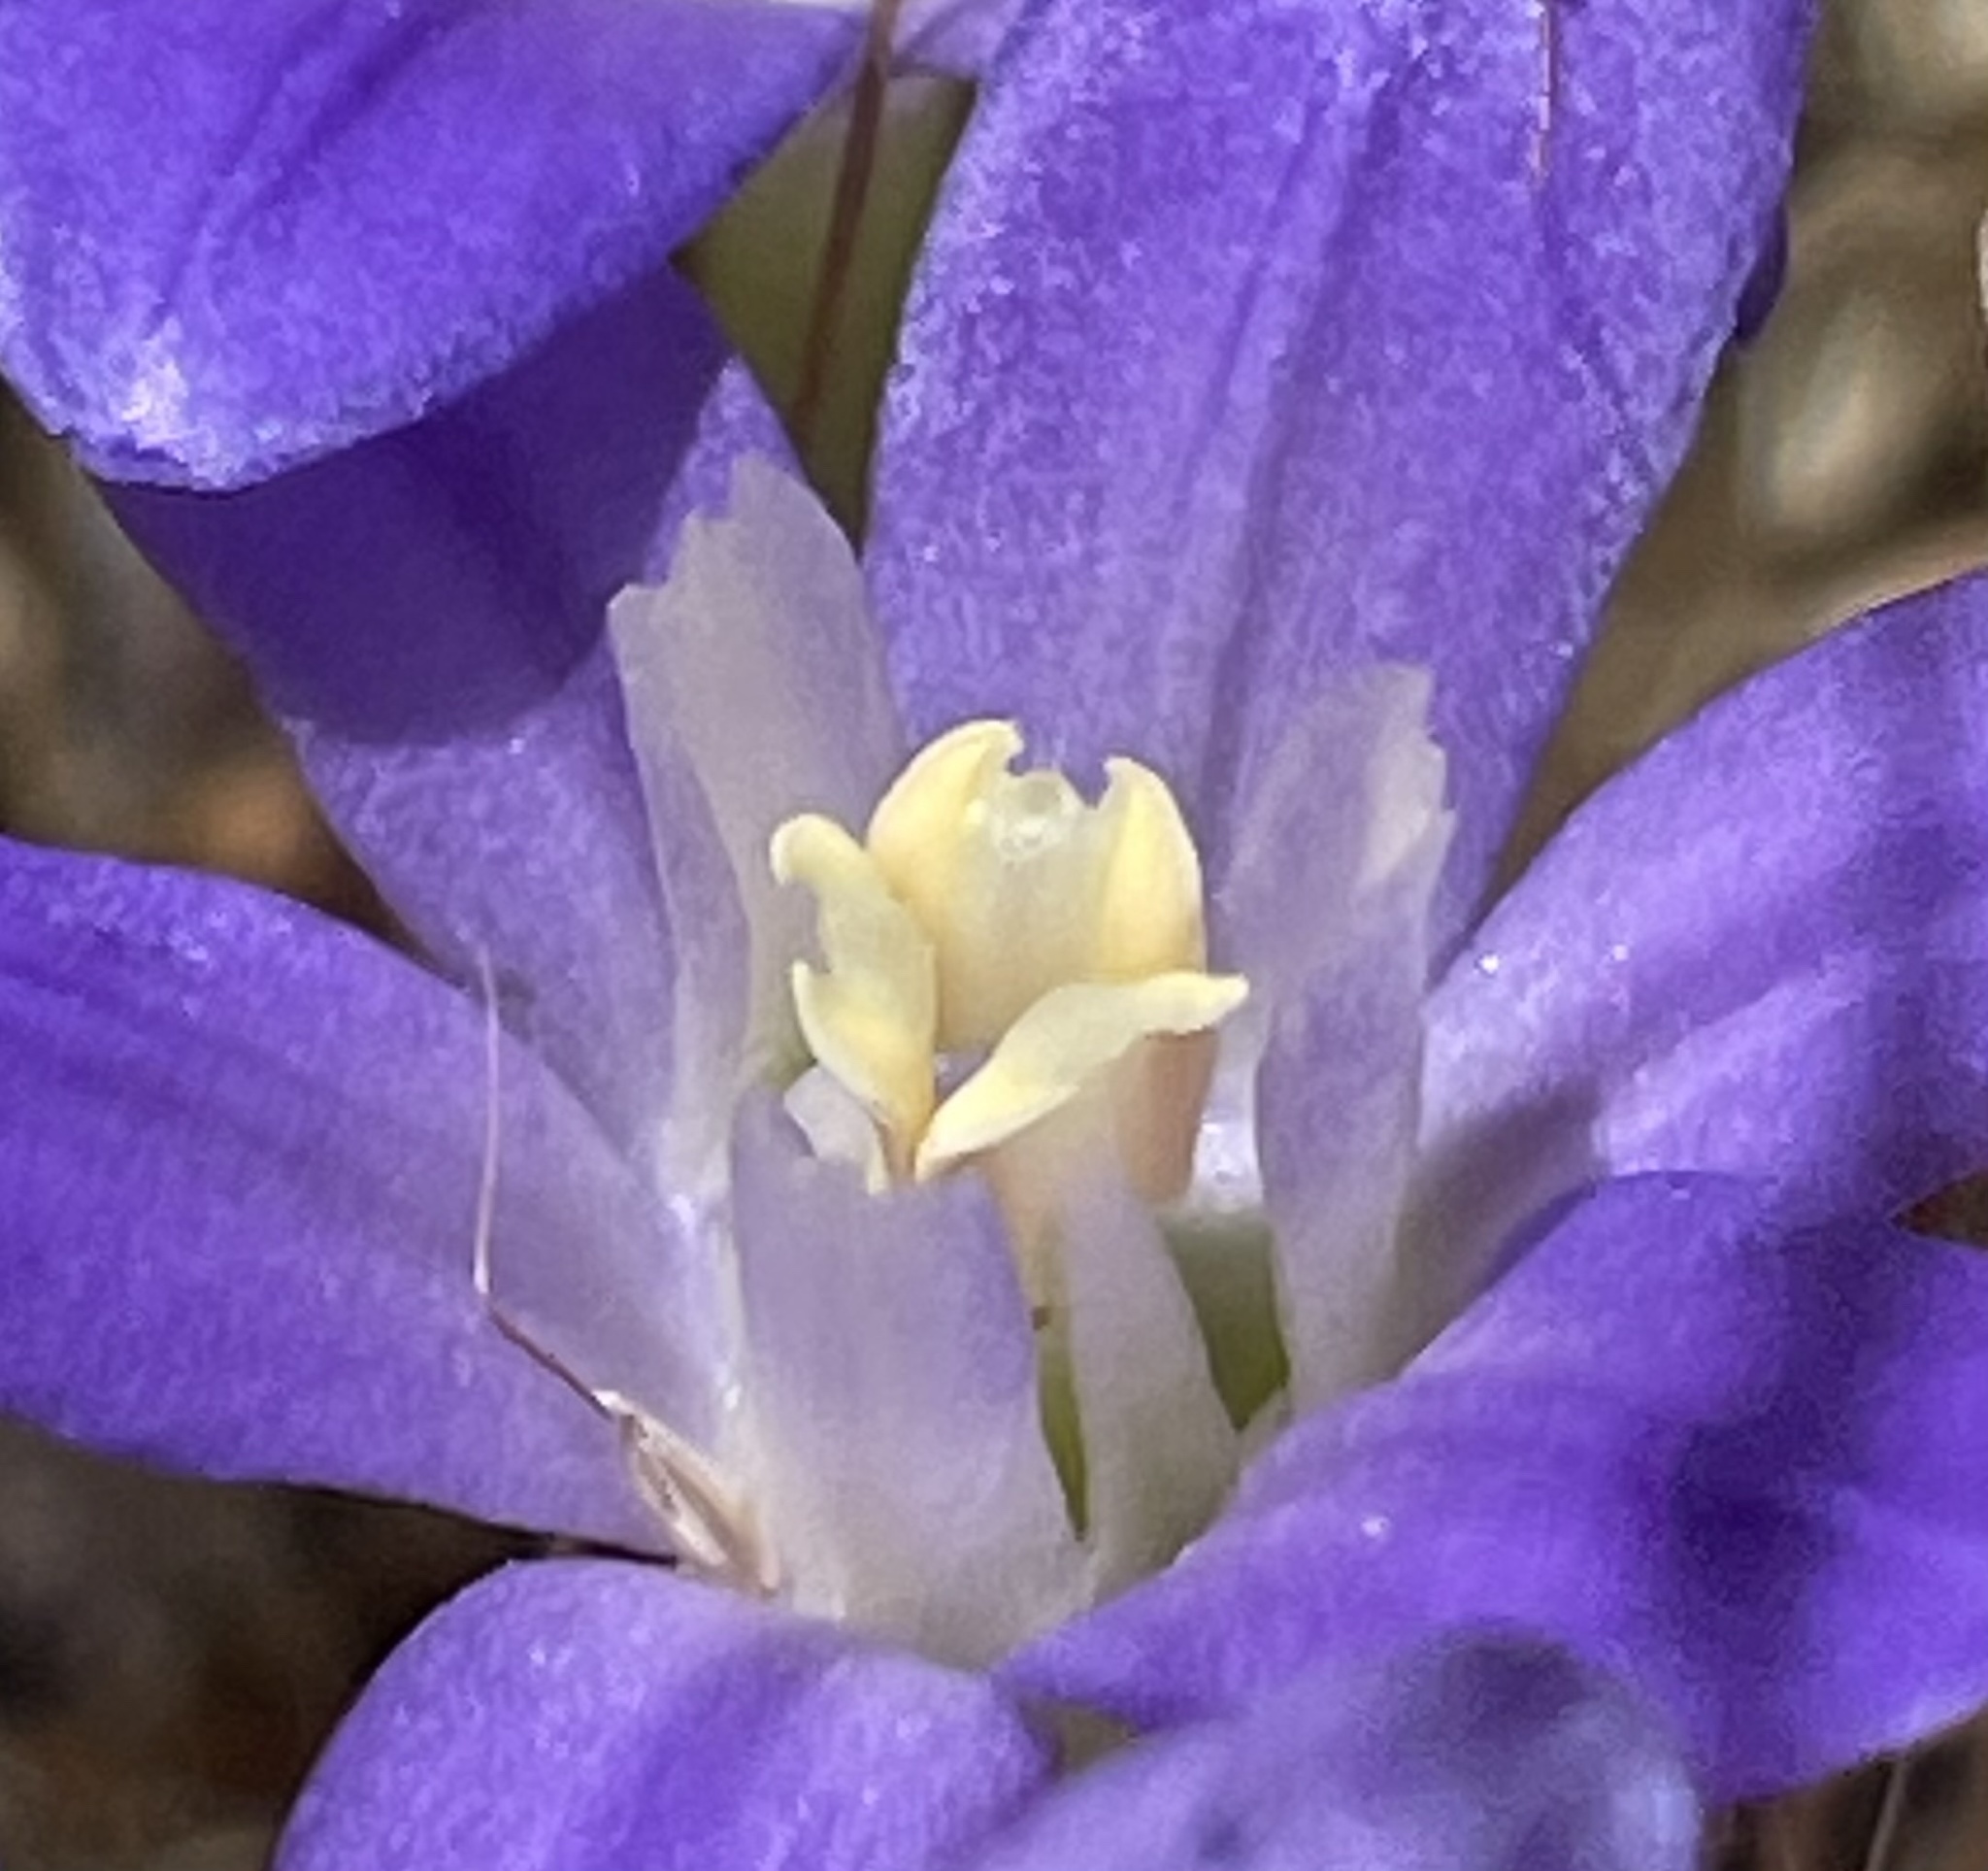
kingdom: Plantae
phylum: Tracheophyta
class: Liliopsida
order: Asparagales
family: Asparagaceae
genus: Brodiaea
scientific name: Brodiaea terrestris
